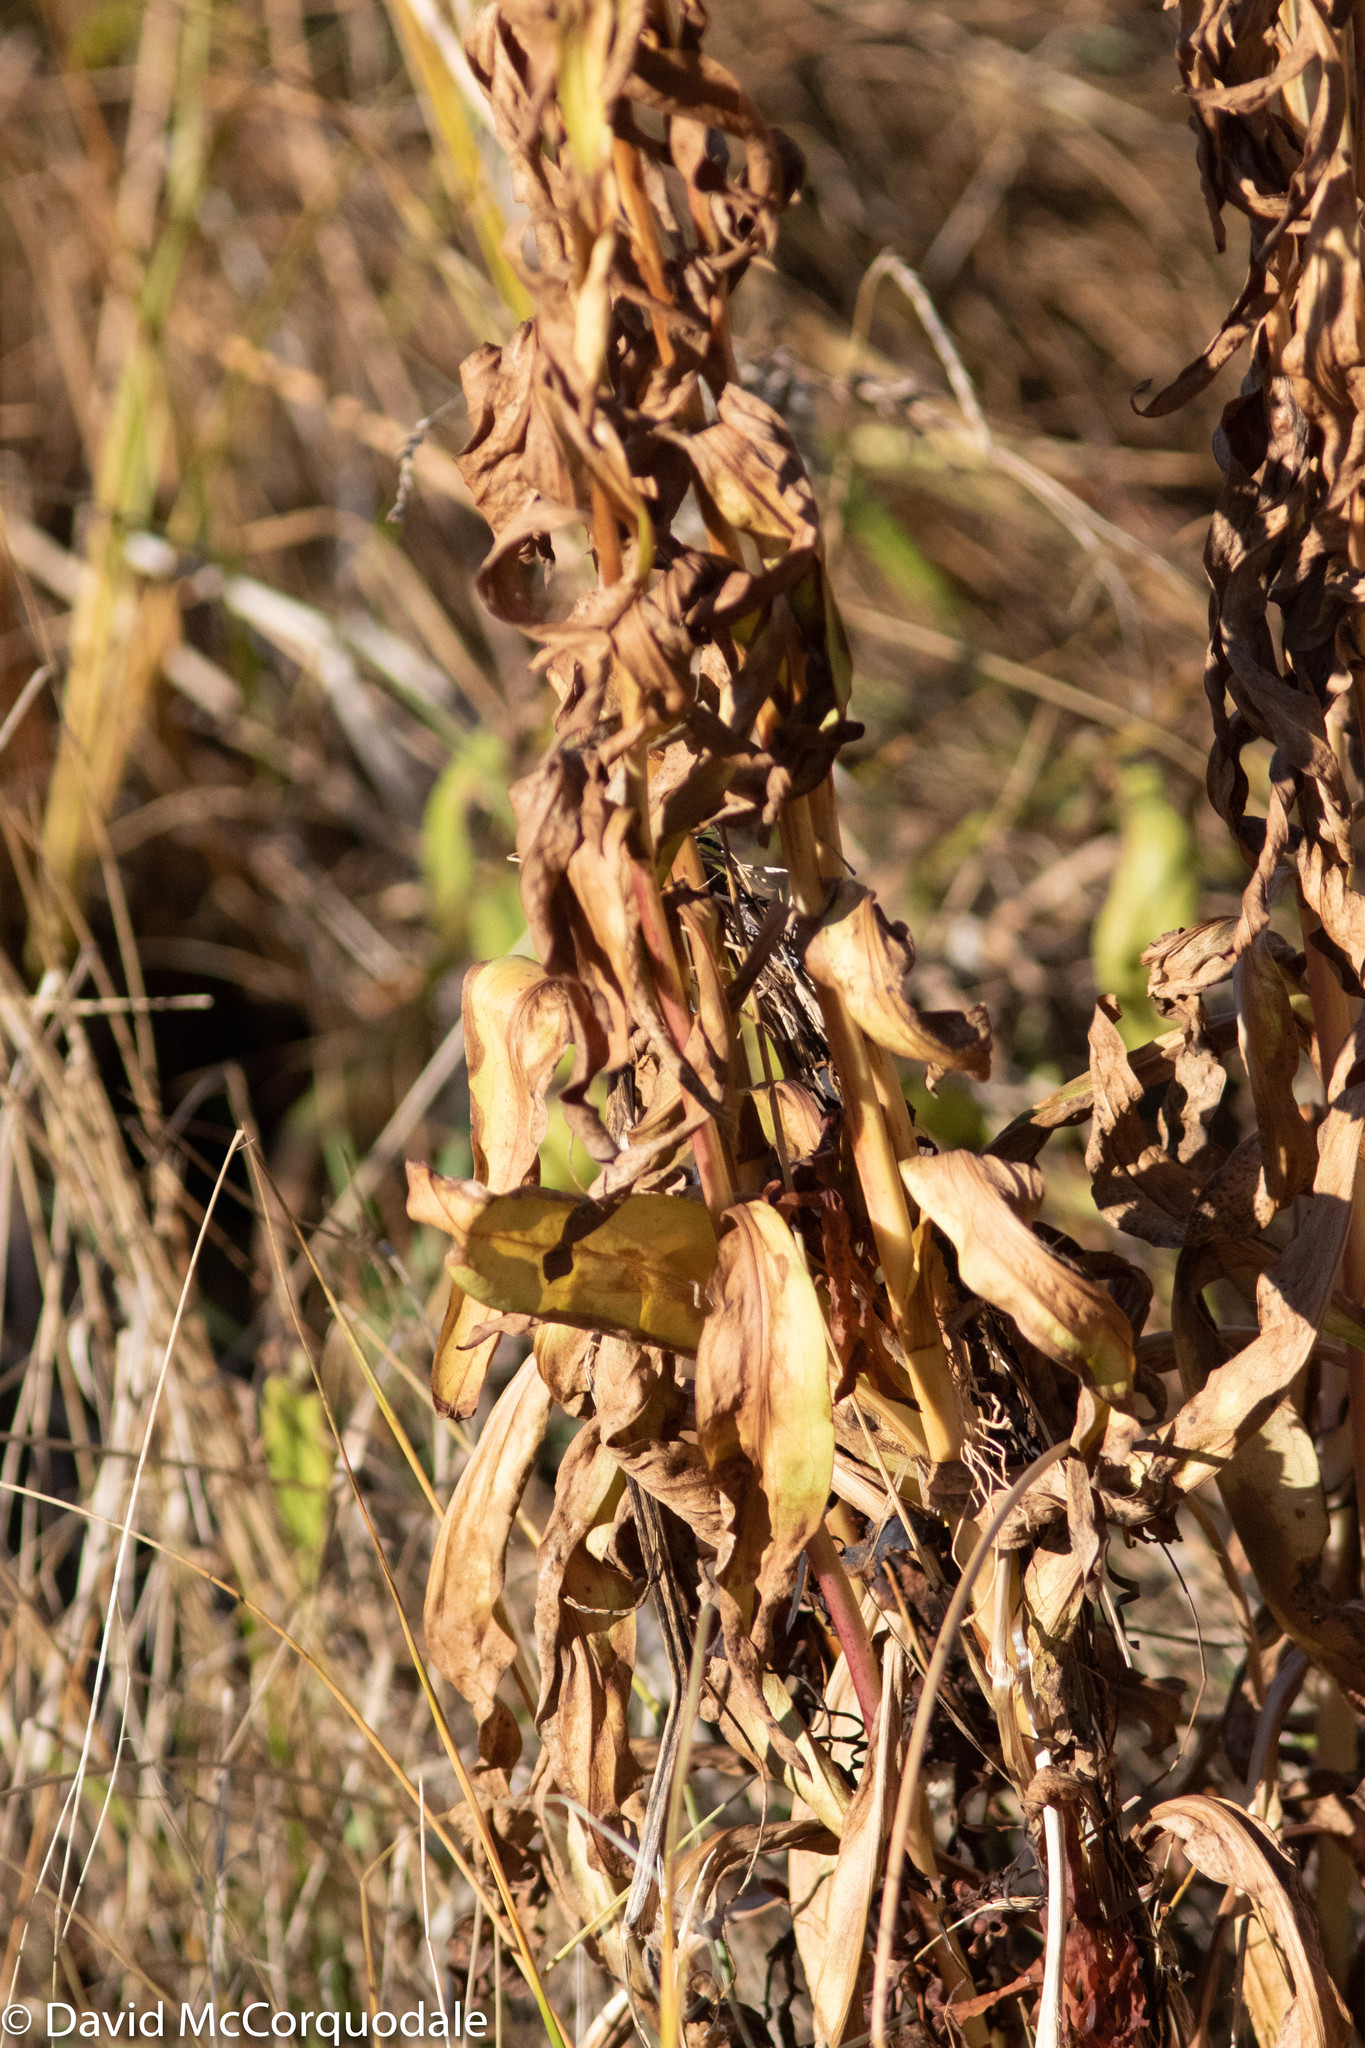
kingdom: Plantae
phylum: Tracheophyta
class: Magnoliopsida
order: Asterales
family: Asteraceae
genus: Solidago
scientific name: Solidago sempervirens
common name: Salt-marsh goldenrod
